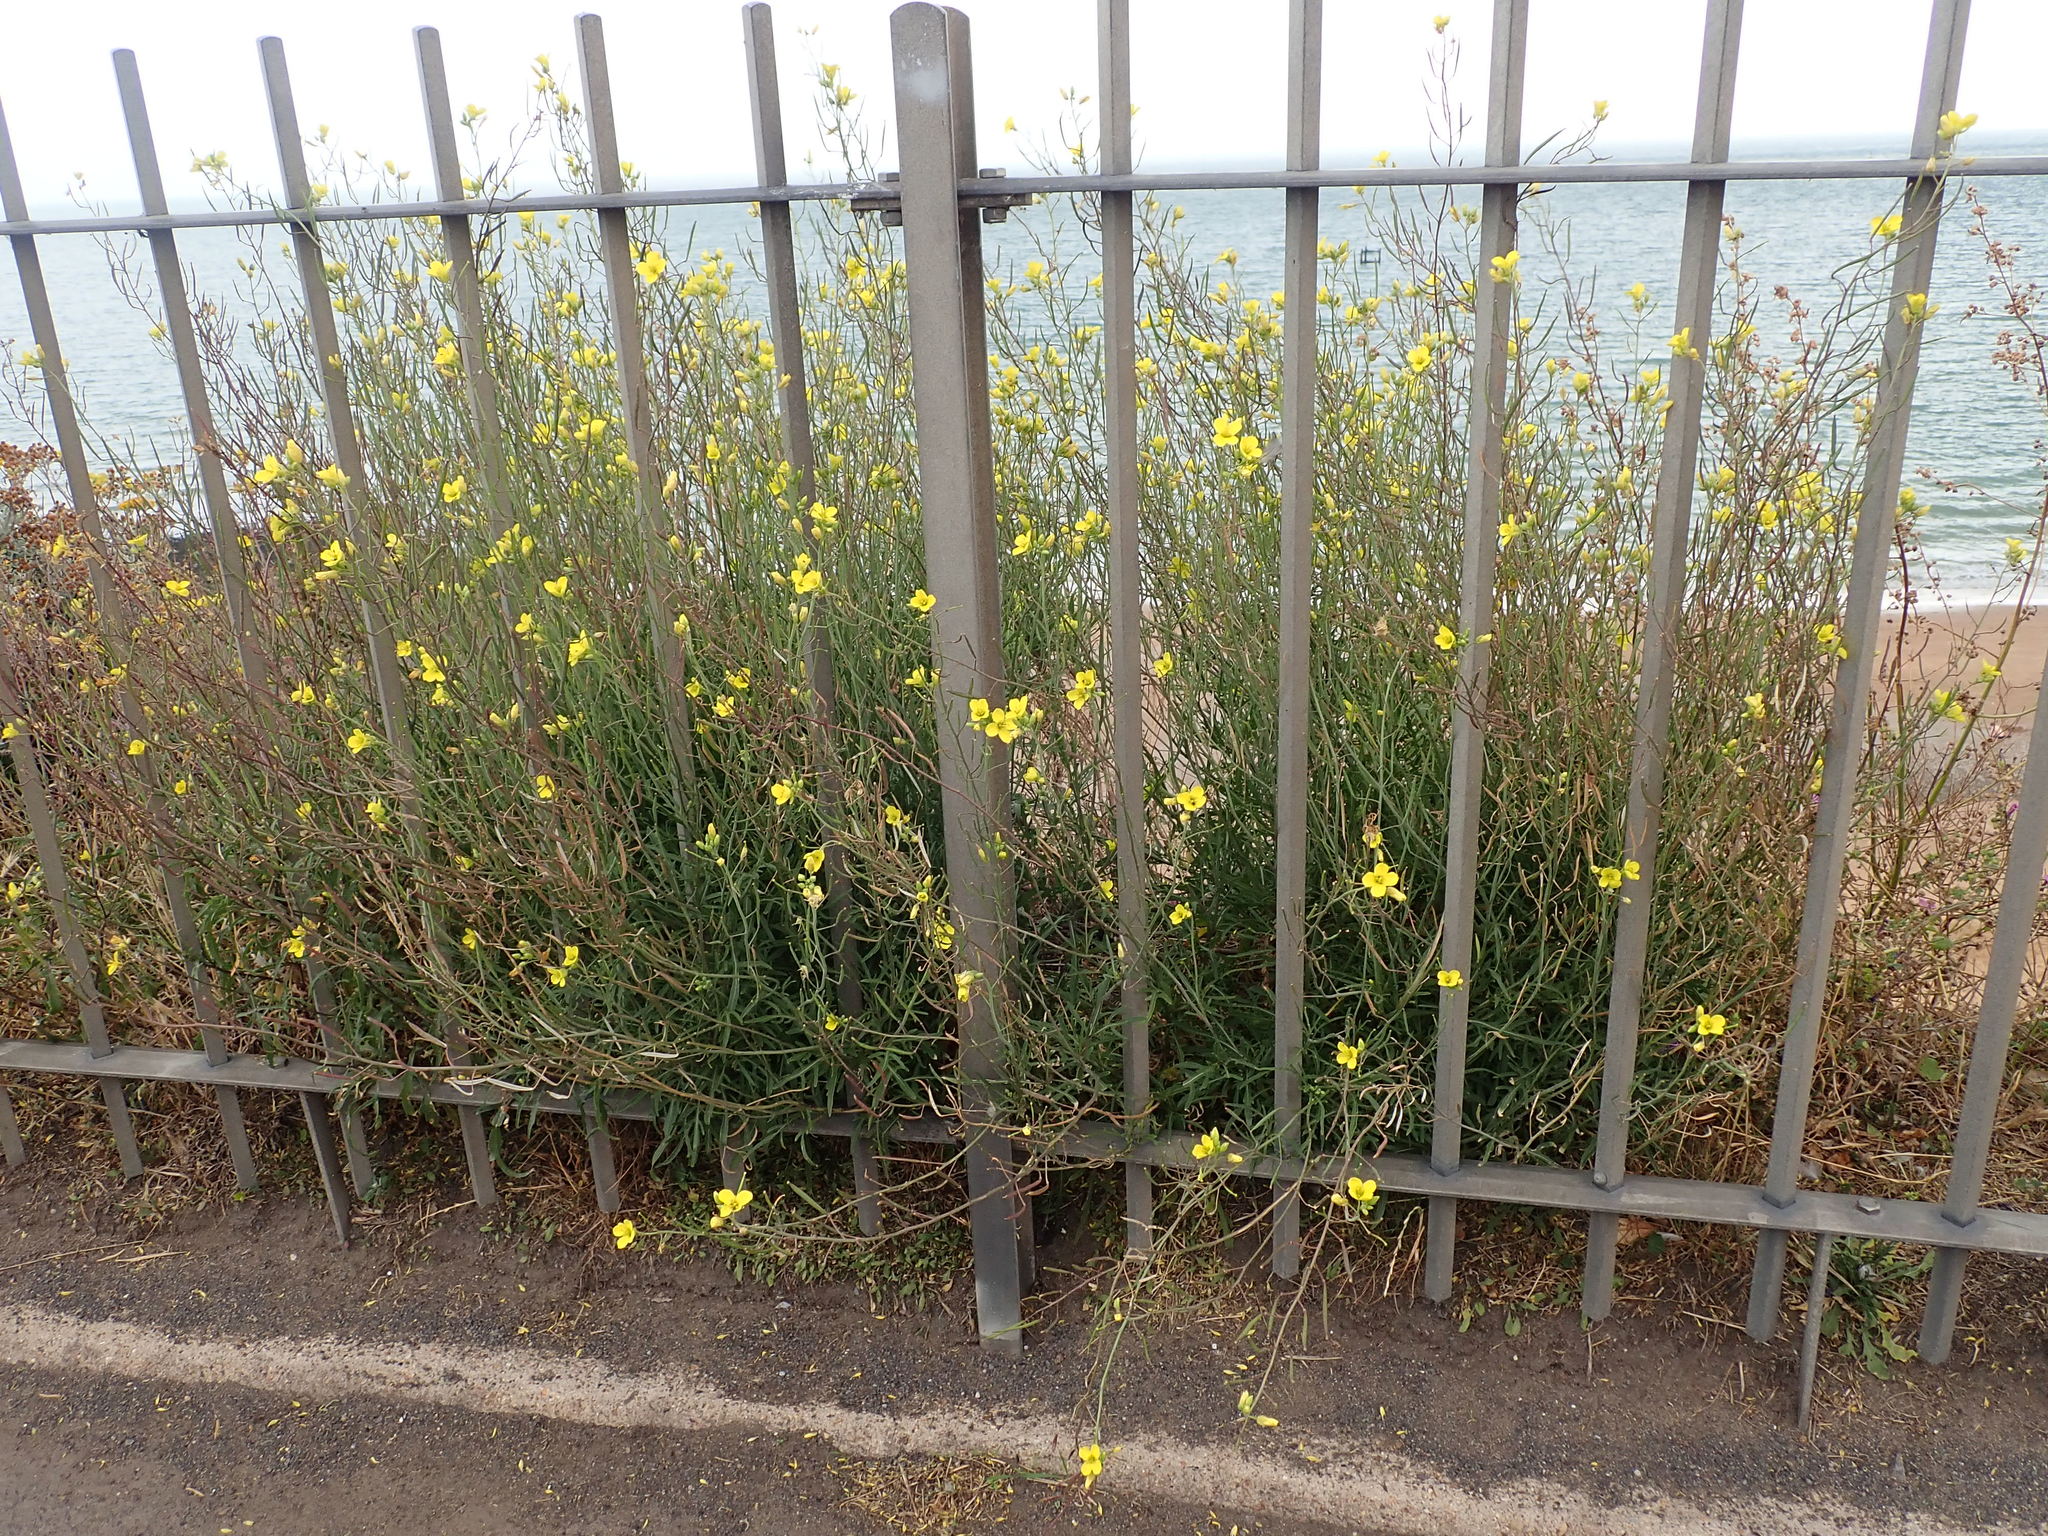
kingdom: Plantae
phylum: Tracheophyta
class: Magnoliopsida
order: Brassicales
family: Brassicaceae
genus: Diplotaxis
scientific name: Diplotaxis tenuifolia
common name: Perennial wall-rocket
